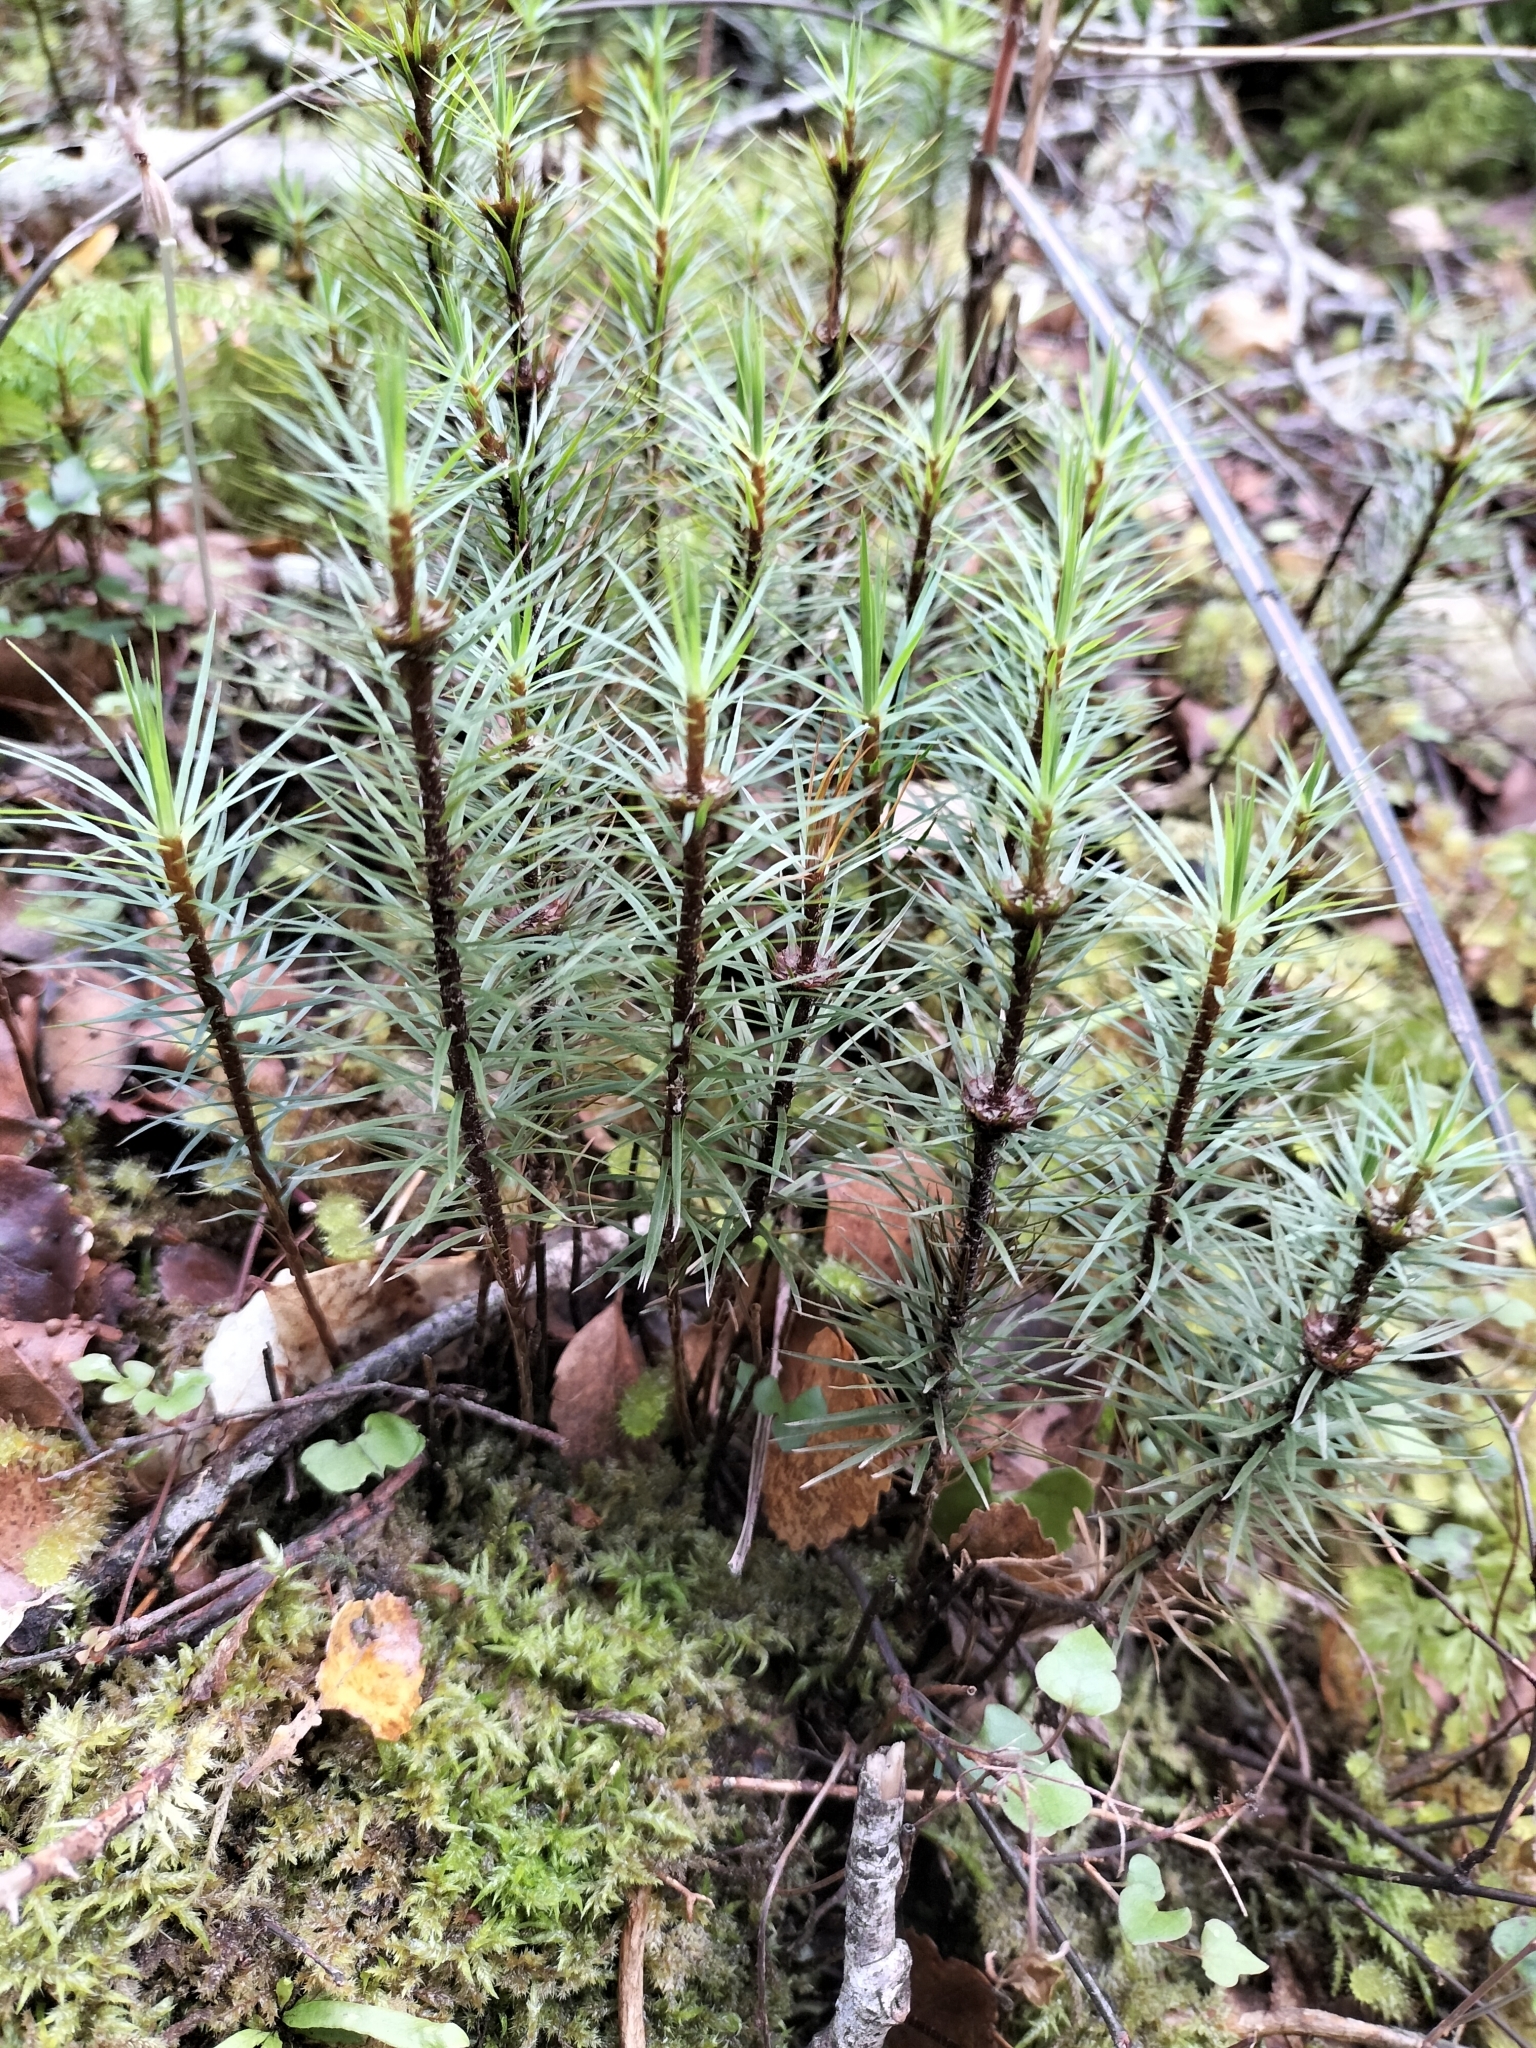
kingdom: Plantae
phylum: Bryophyta
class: Polytrichopsida
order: Polytrichales
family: Polytrichaceae
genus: Dawsonia
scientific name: Dawsonia superba
